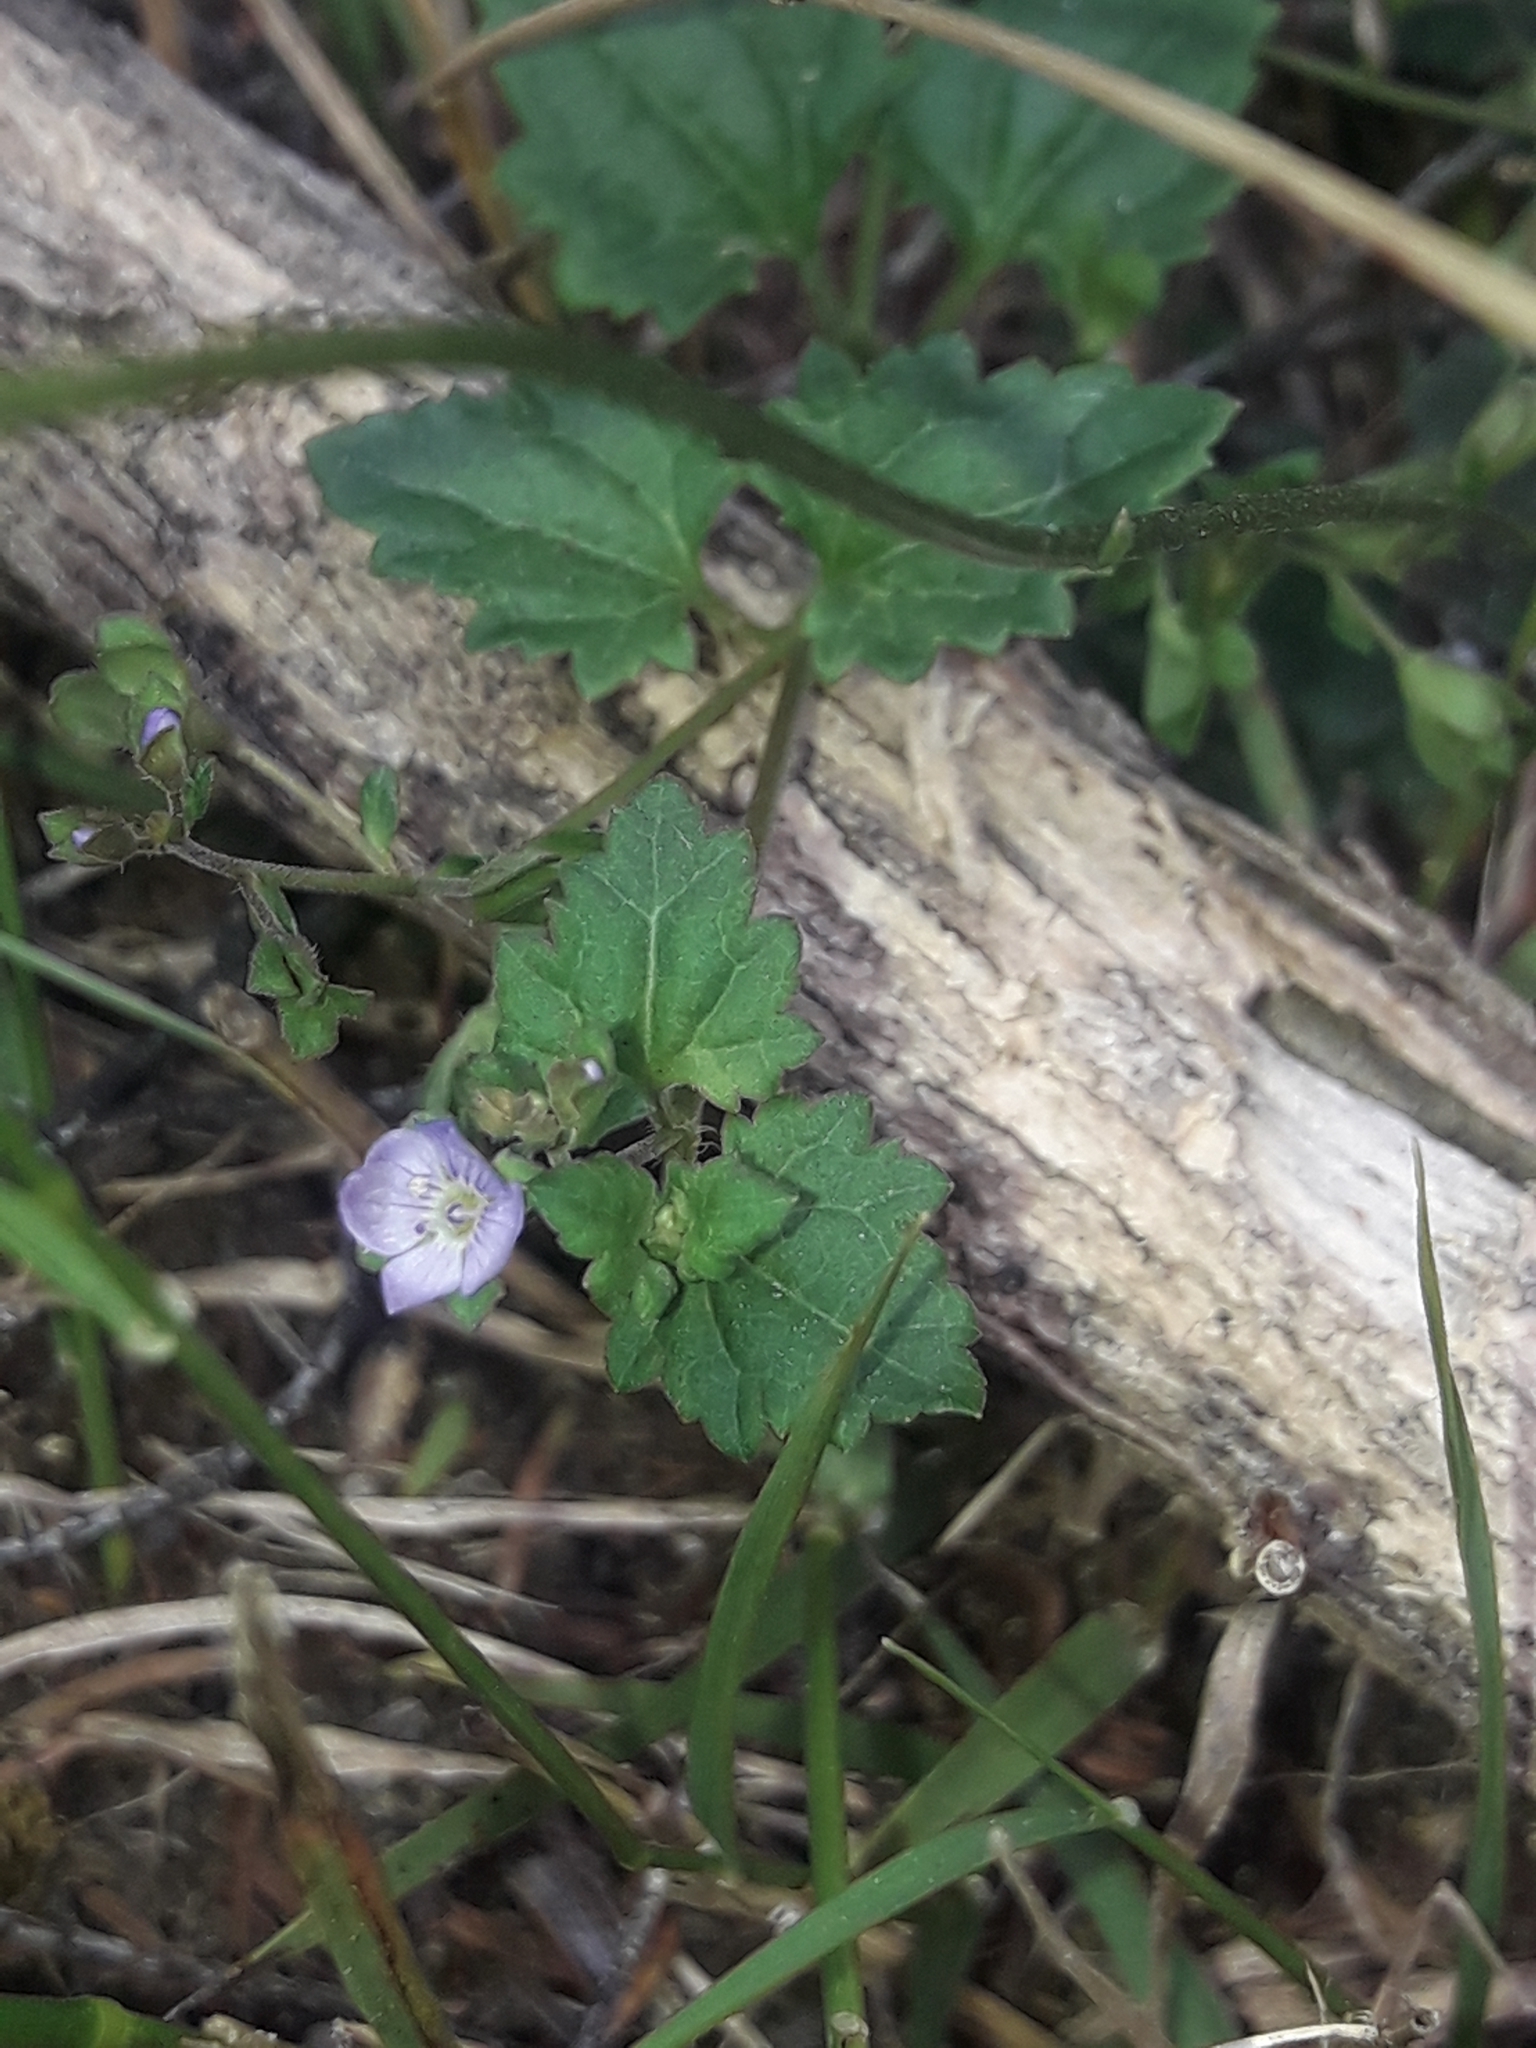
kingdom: Plantae
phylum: Tracheophyta
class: Magnoliopsida
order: Lamiales
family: Plantaginaceae
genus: Veronica
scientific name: Veronica plebeia
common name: Speedwell
